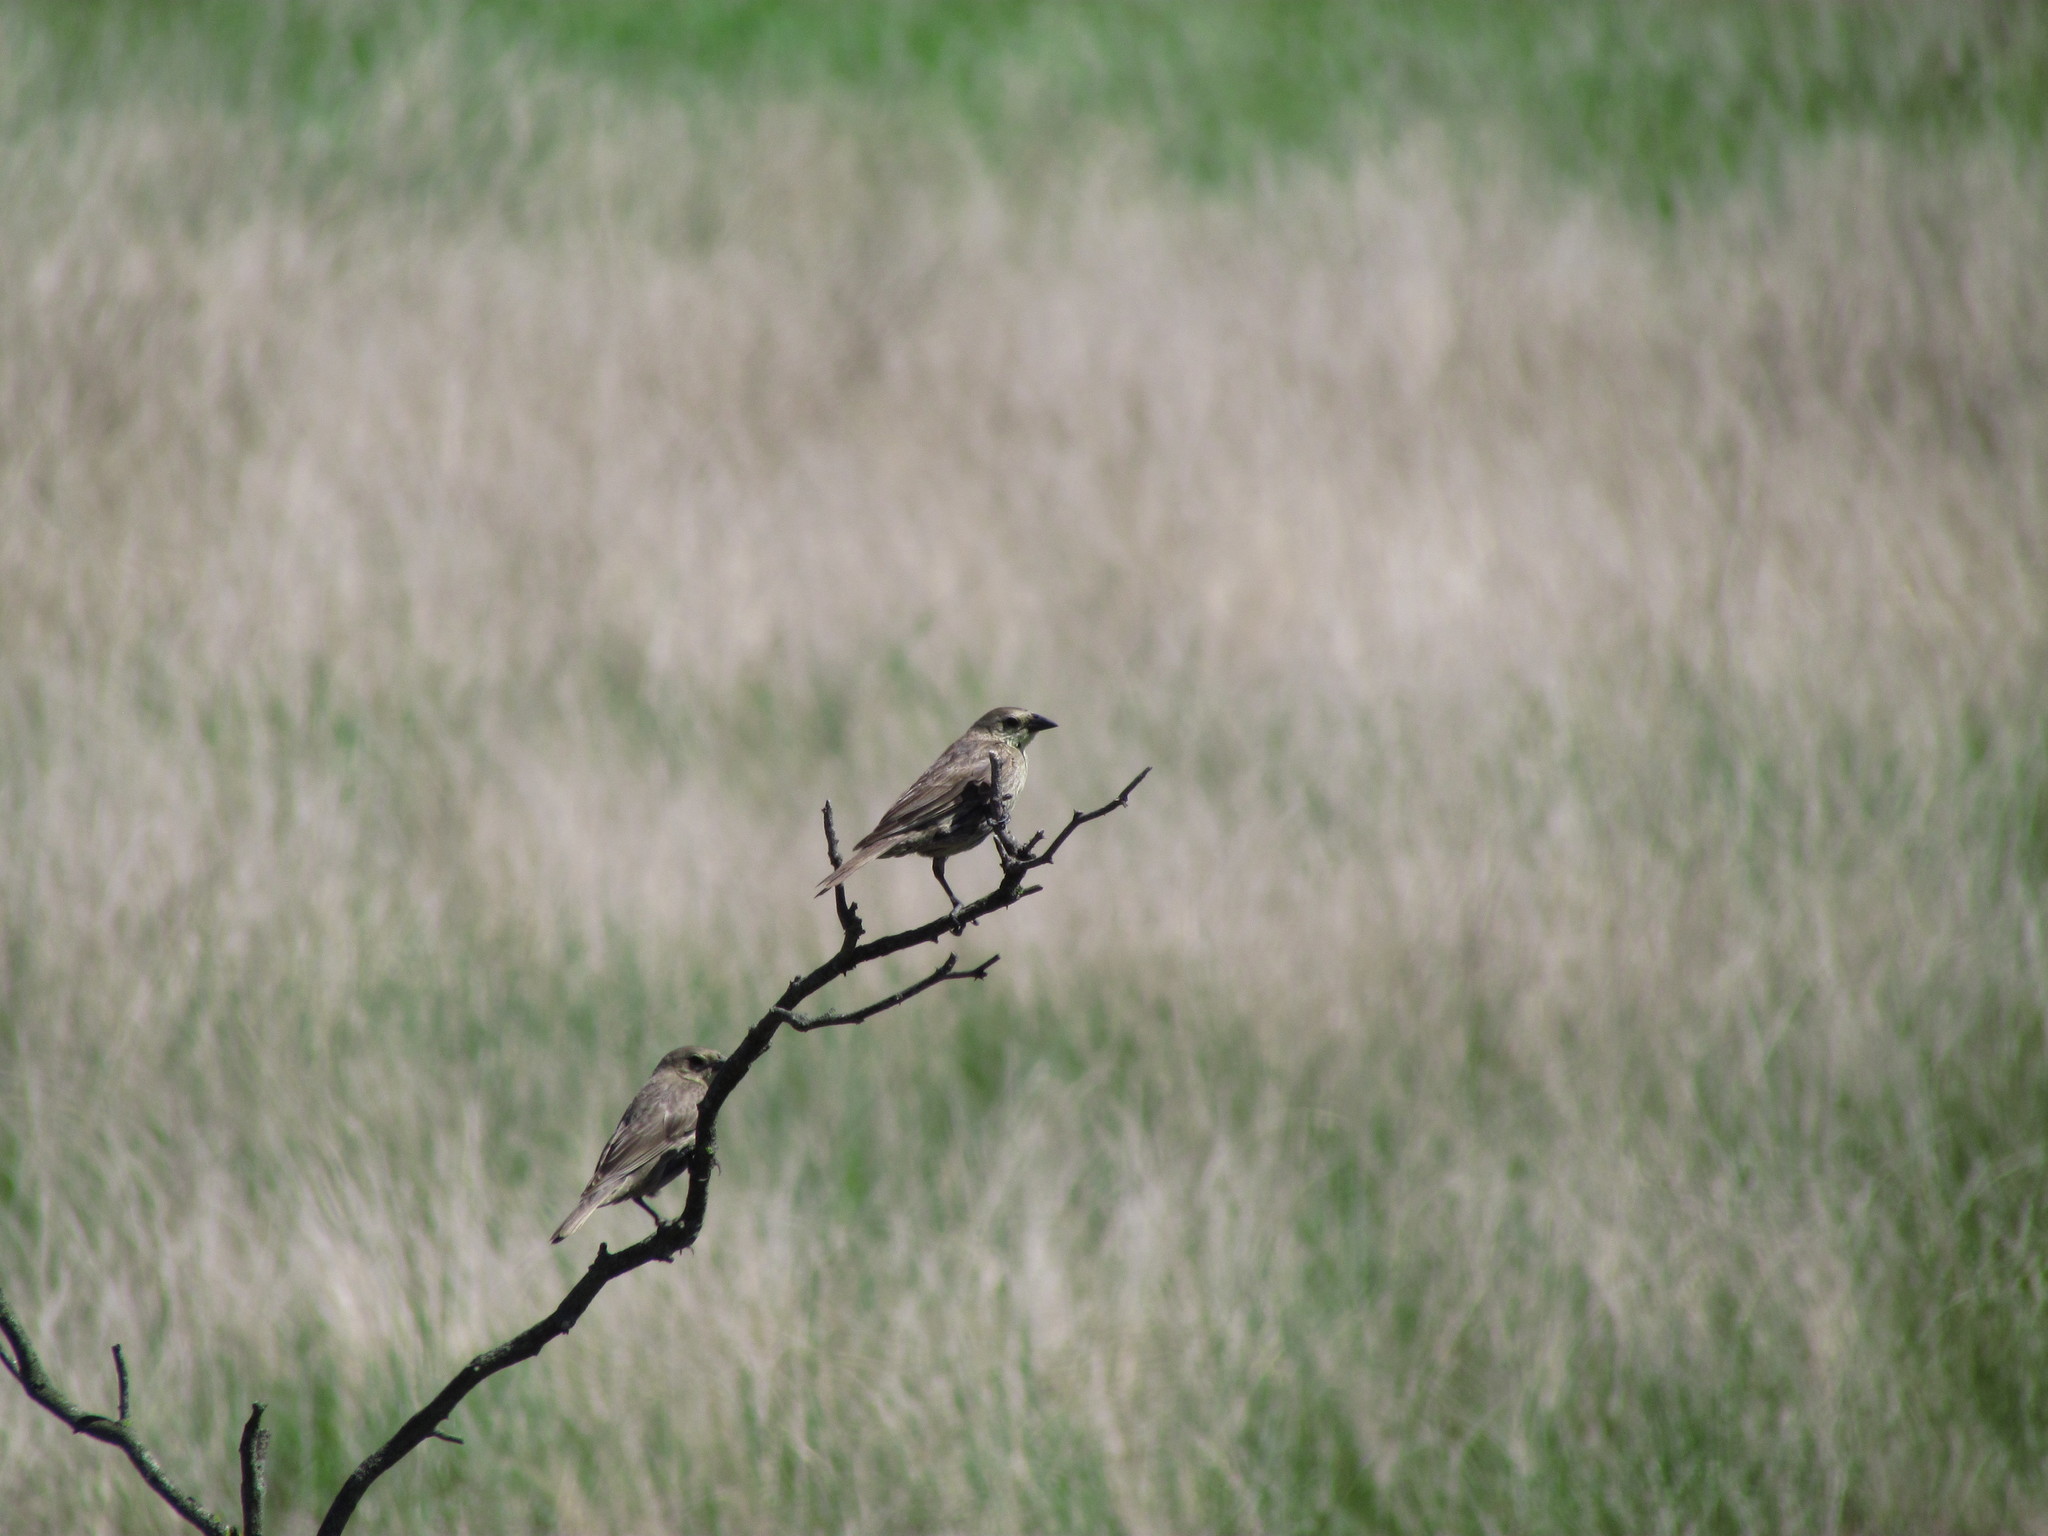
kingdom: Animalia
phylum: Chordata
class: Aves
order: Passeriformes
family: Icteridae
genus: Molothrus
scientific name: Molothrus bonariensis
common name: Shiny cowbird
